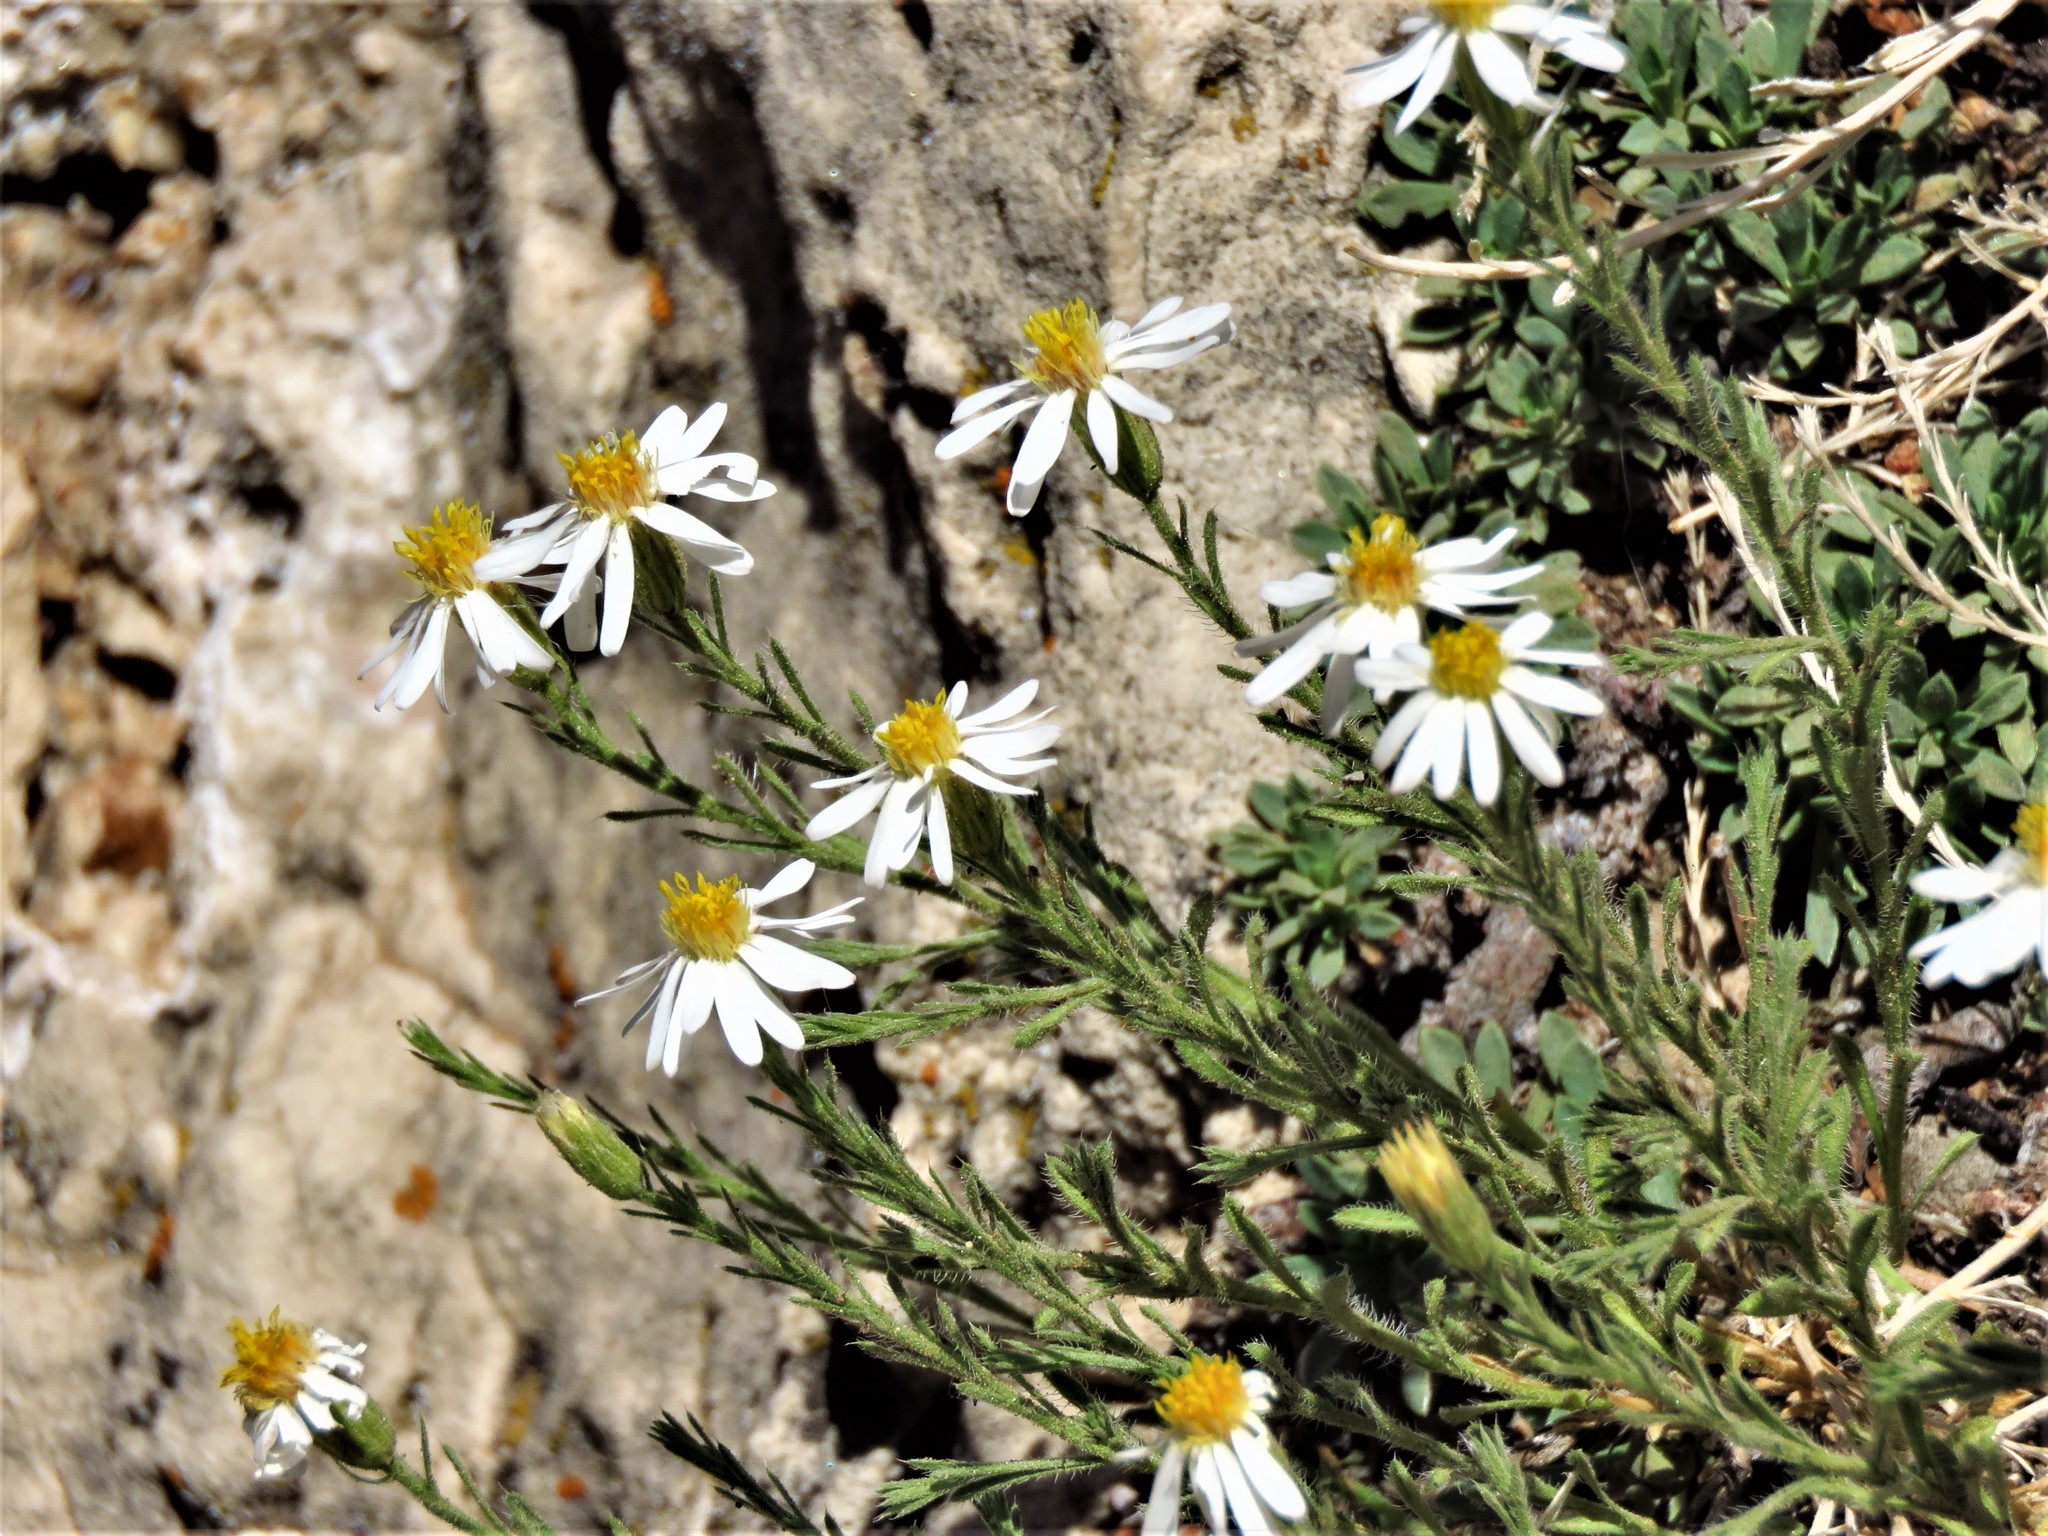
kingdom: Plantae
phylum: Tracheophyta
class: Magnoliopsida
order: Asterales
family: Asteraceae
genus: Chaetopappa
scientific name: Chaetopappa ericoides
